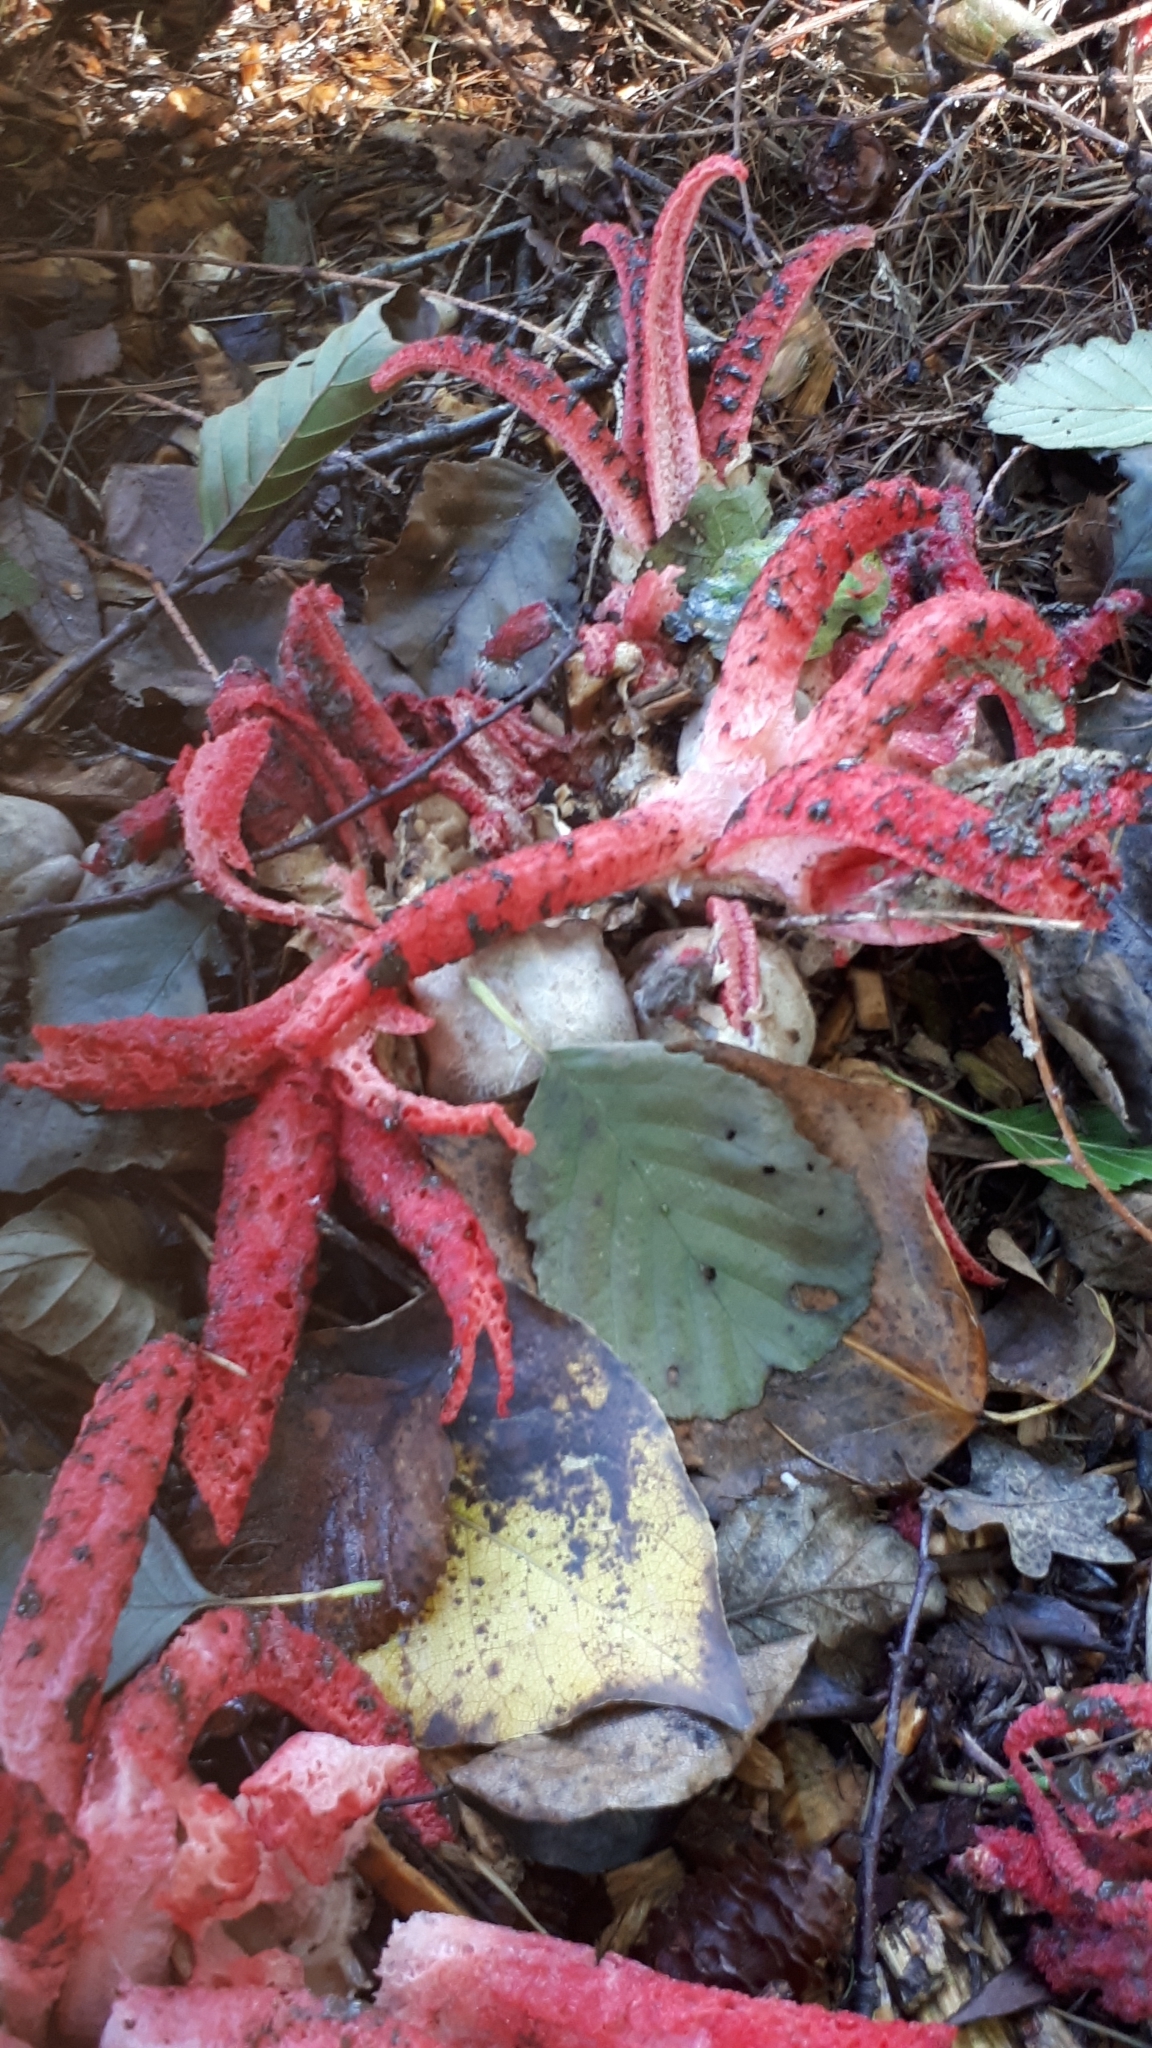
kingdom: Fungi
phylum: Basidiomycota
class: Agaricomycetes
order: Phallales
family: Phallaceae
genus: Clathrus
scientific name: Clathrus archeri
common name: Devil's fingers
